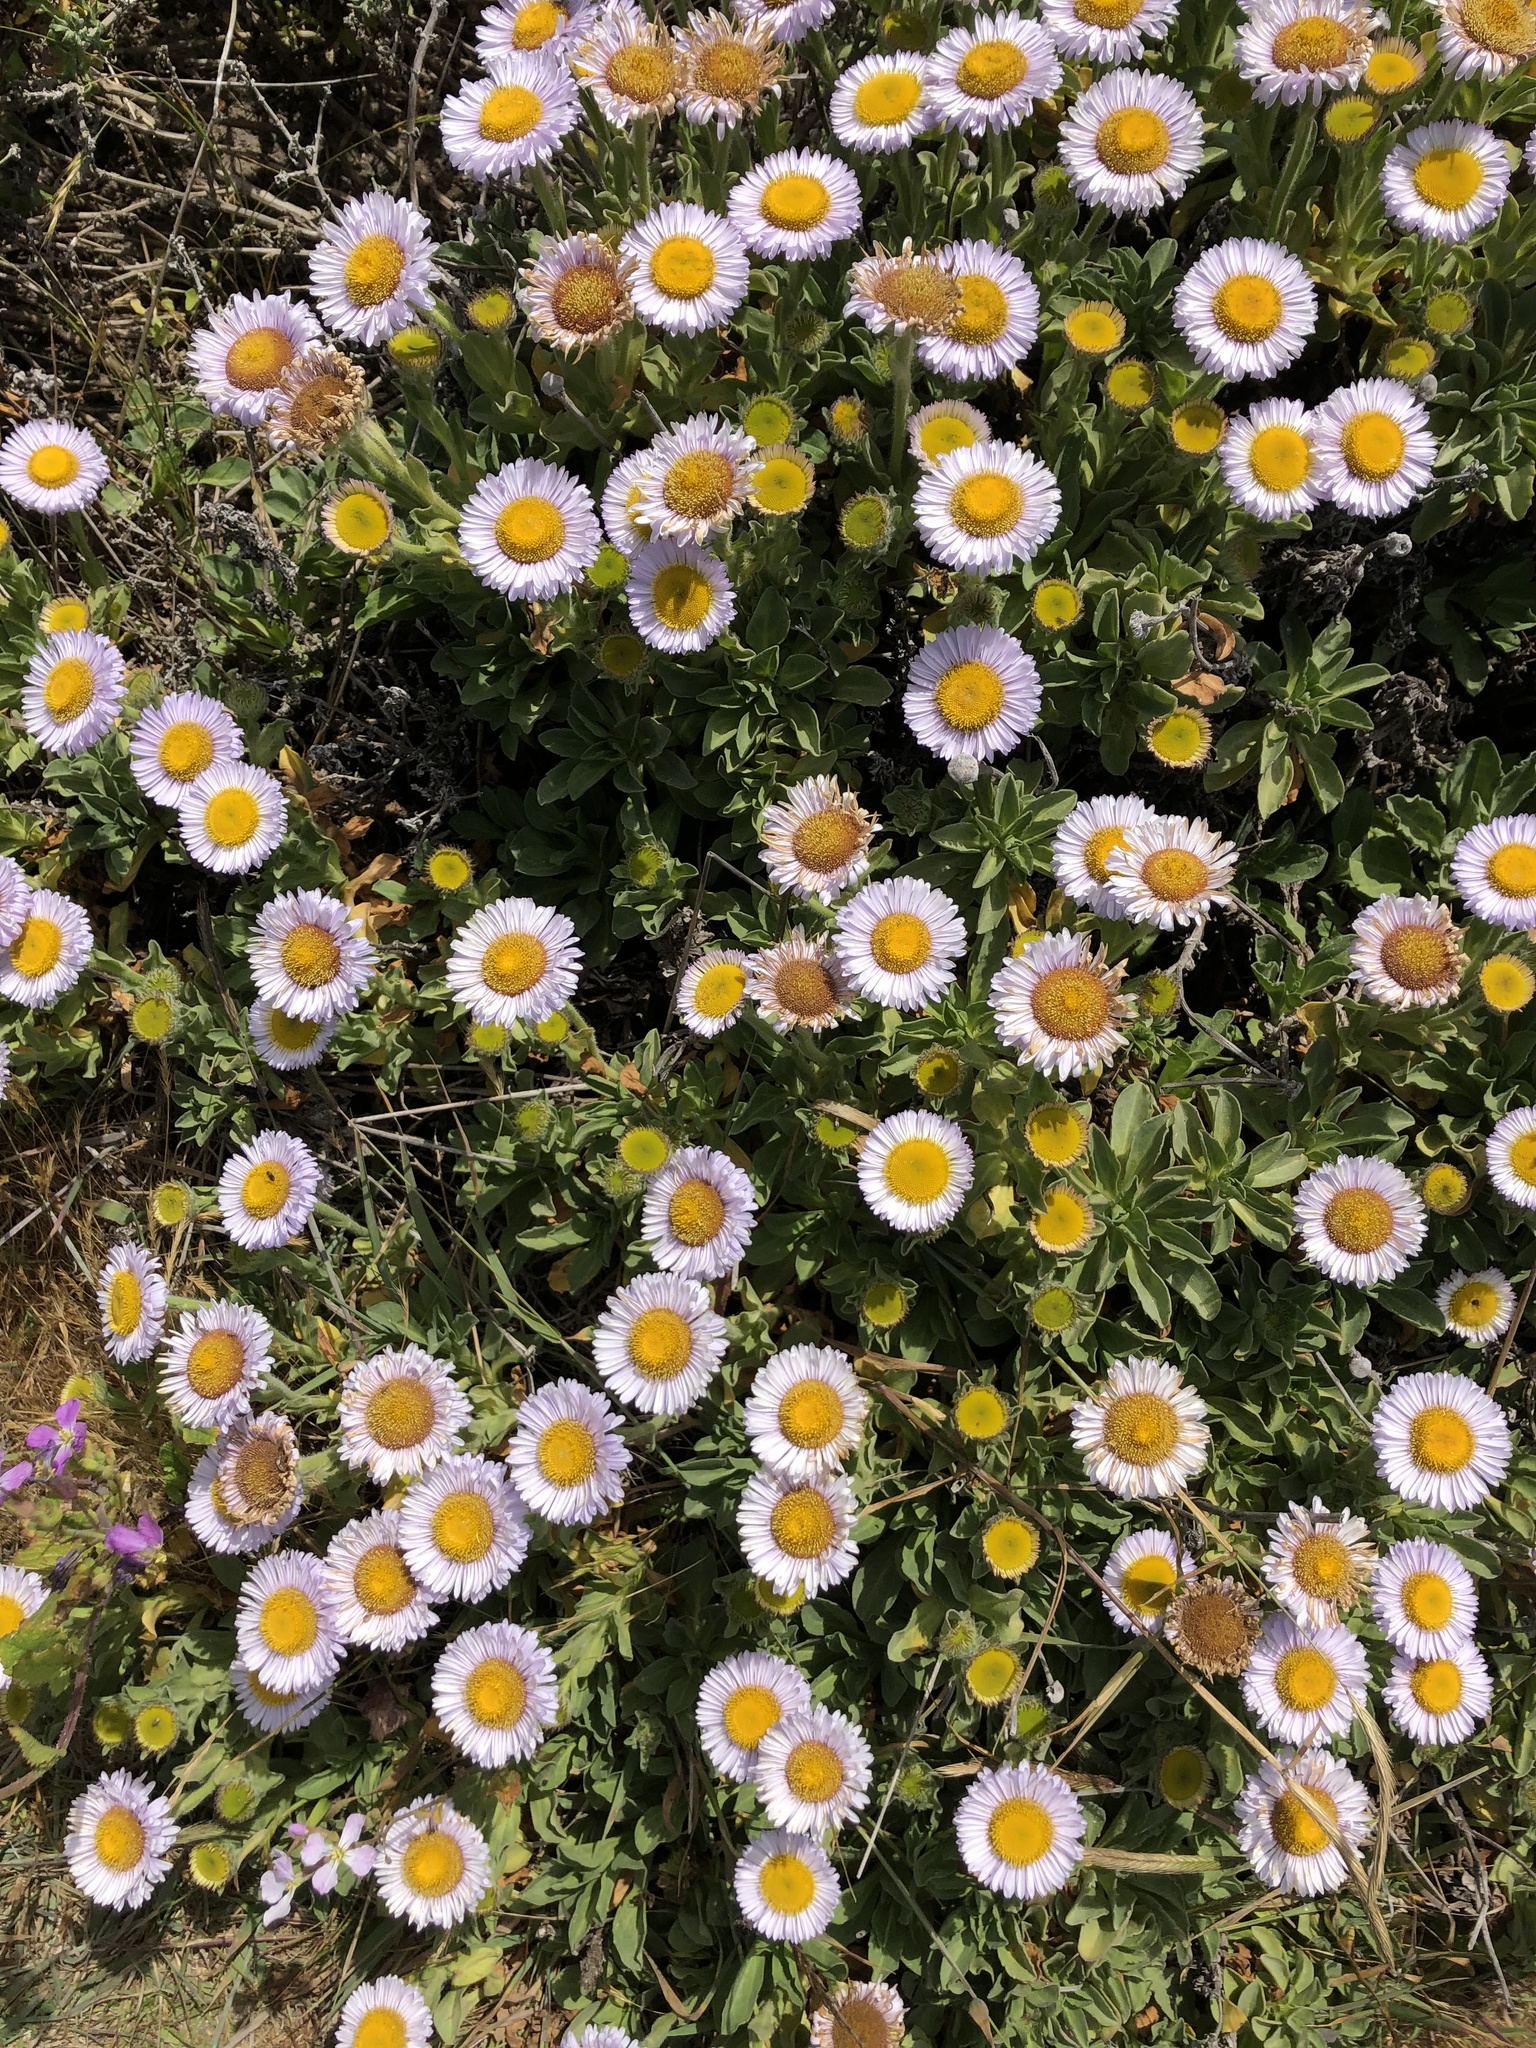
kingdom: Plantae
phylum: Tracheophyta
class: Magnoliopsida
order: Asterales
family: Asteraceae
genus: Erigeron
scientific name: Erigeron glaucus
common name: Seaside daisy
